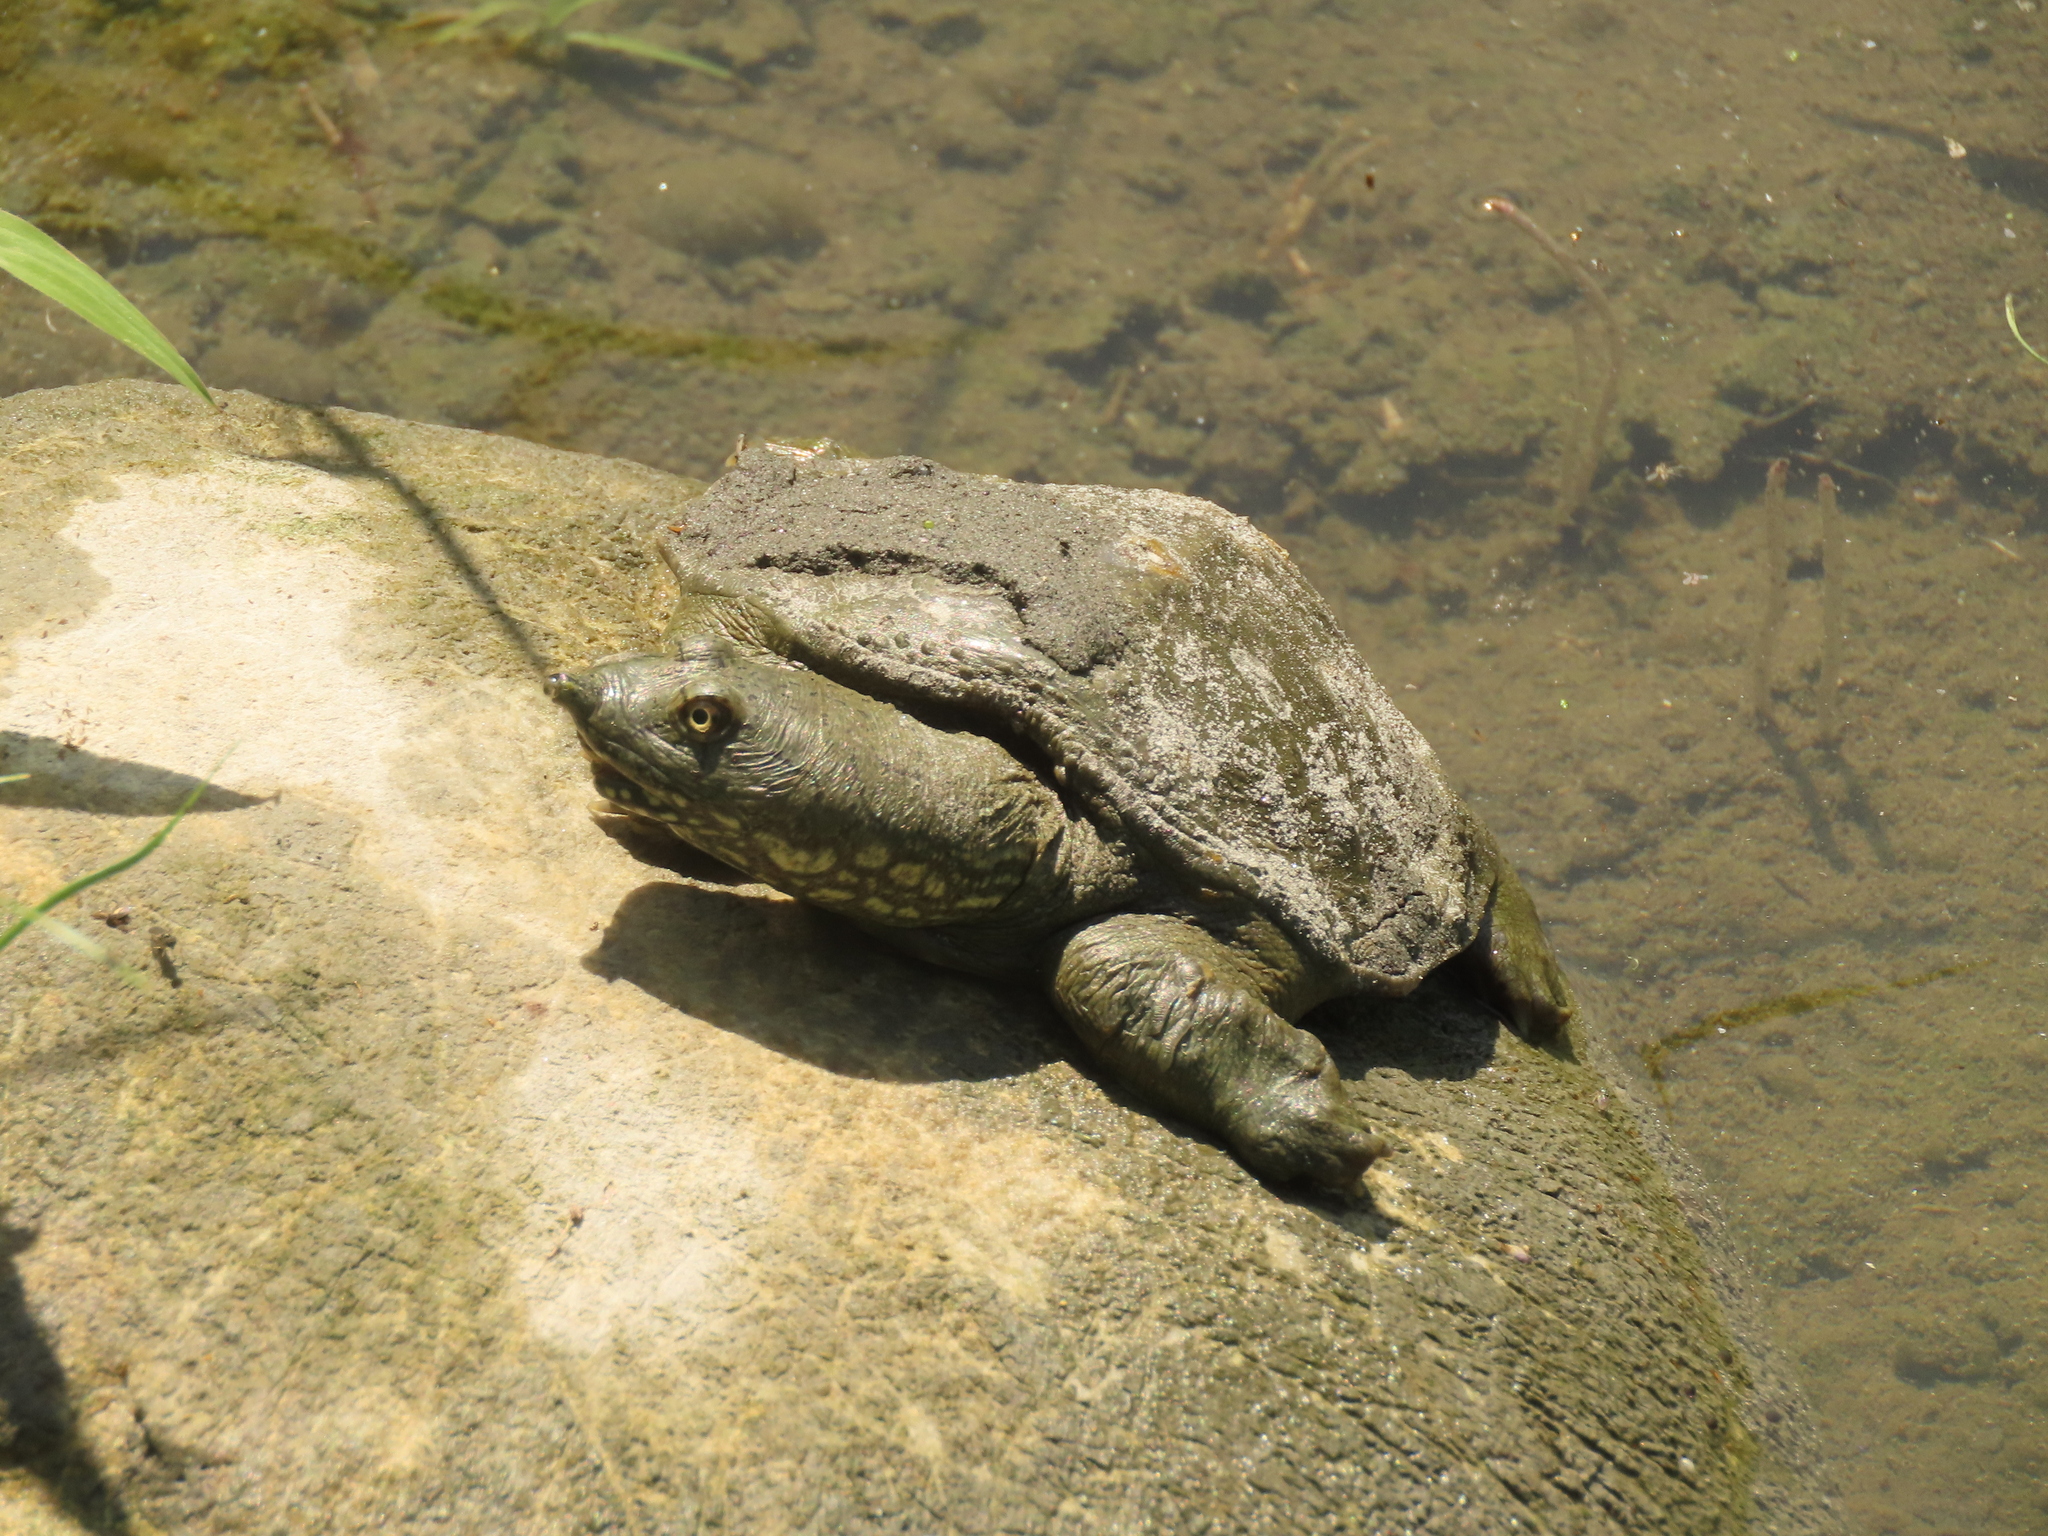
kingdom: Animalia
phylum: Chordata
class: Testudines
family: Trionychidae
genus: Pelodiscus
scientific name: Pelodiscus sinensis
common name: Chinese softshell turtle
